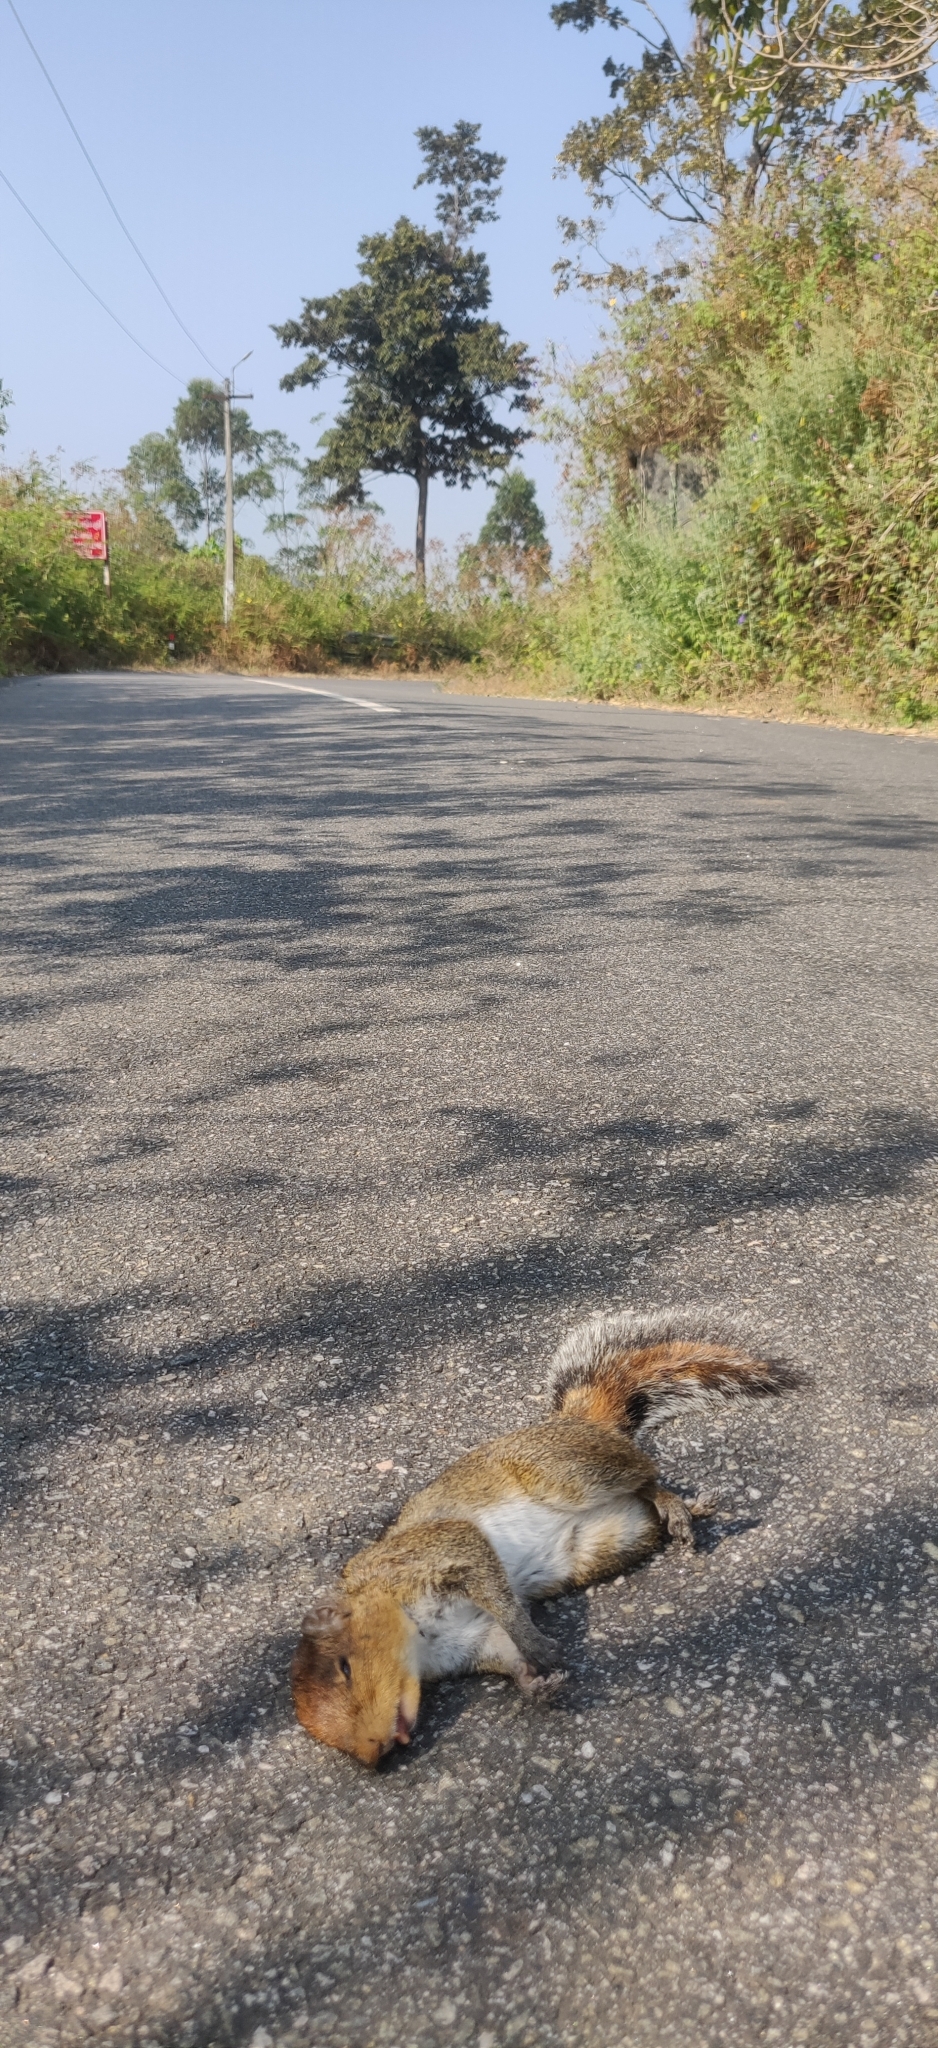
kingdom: Animalia
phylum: Chordata
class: Mammalia
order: Rodentia
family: Sciuridae
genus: Funambulus
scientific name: Funambulus tristriatus
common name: Jungle palm squirrel
